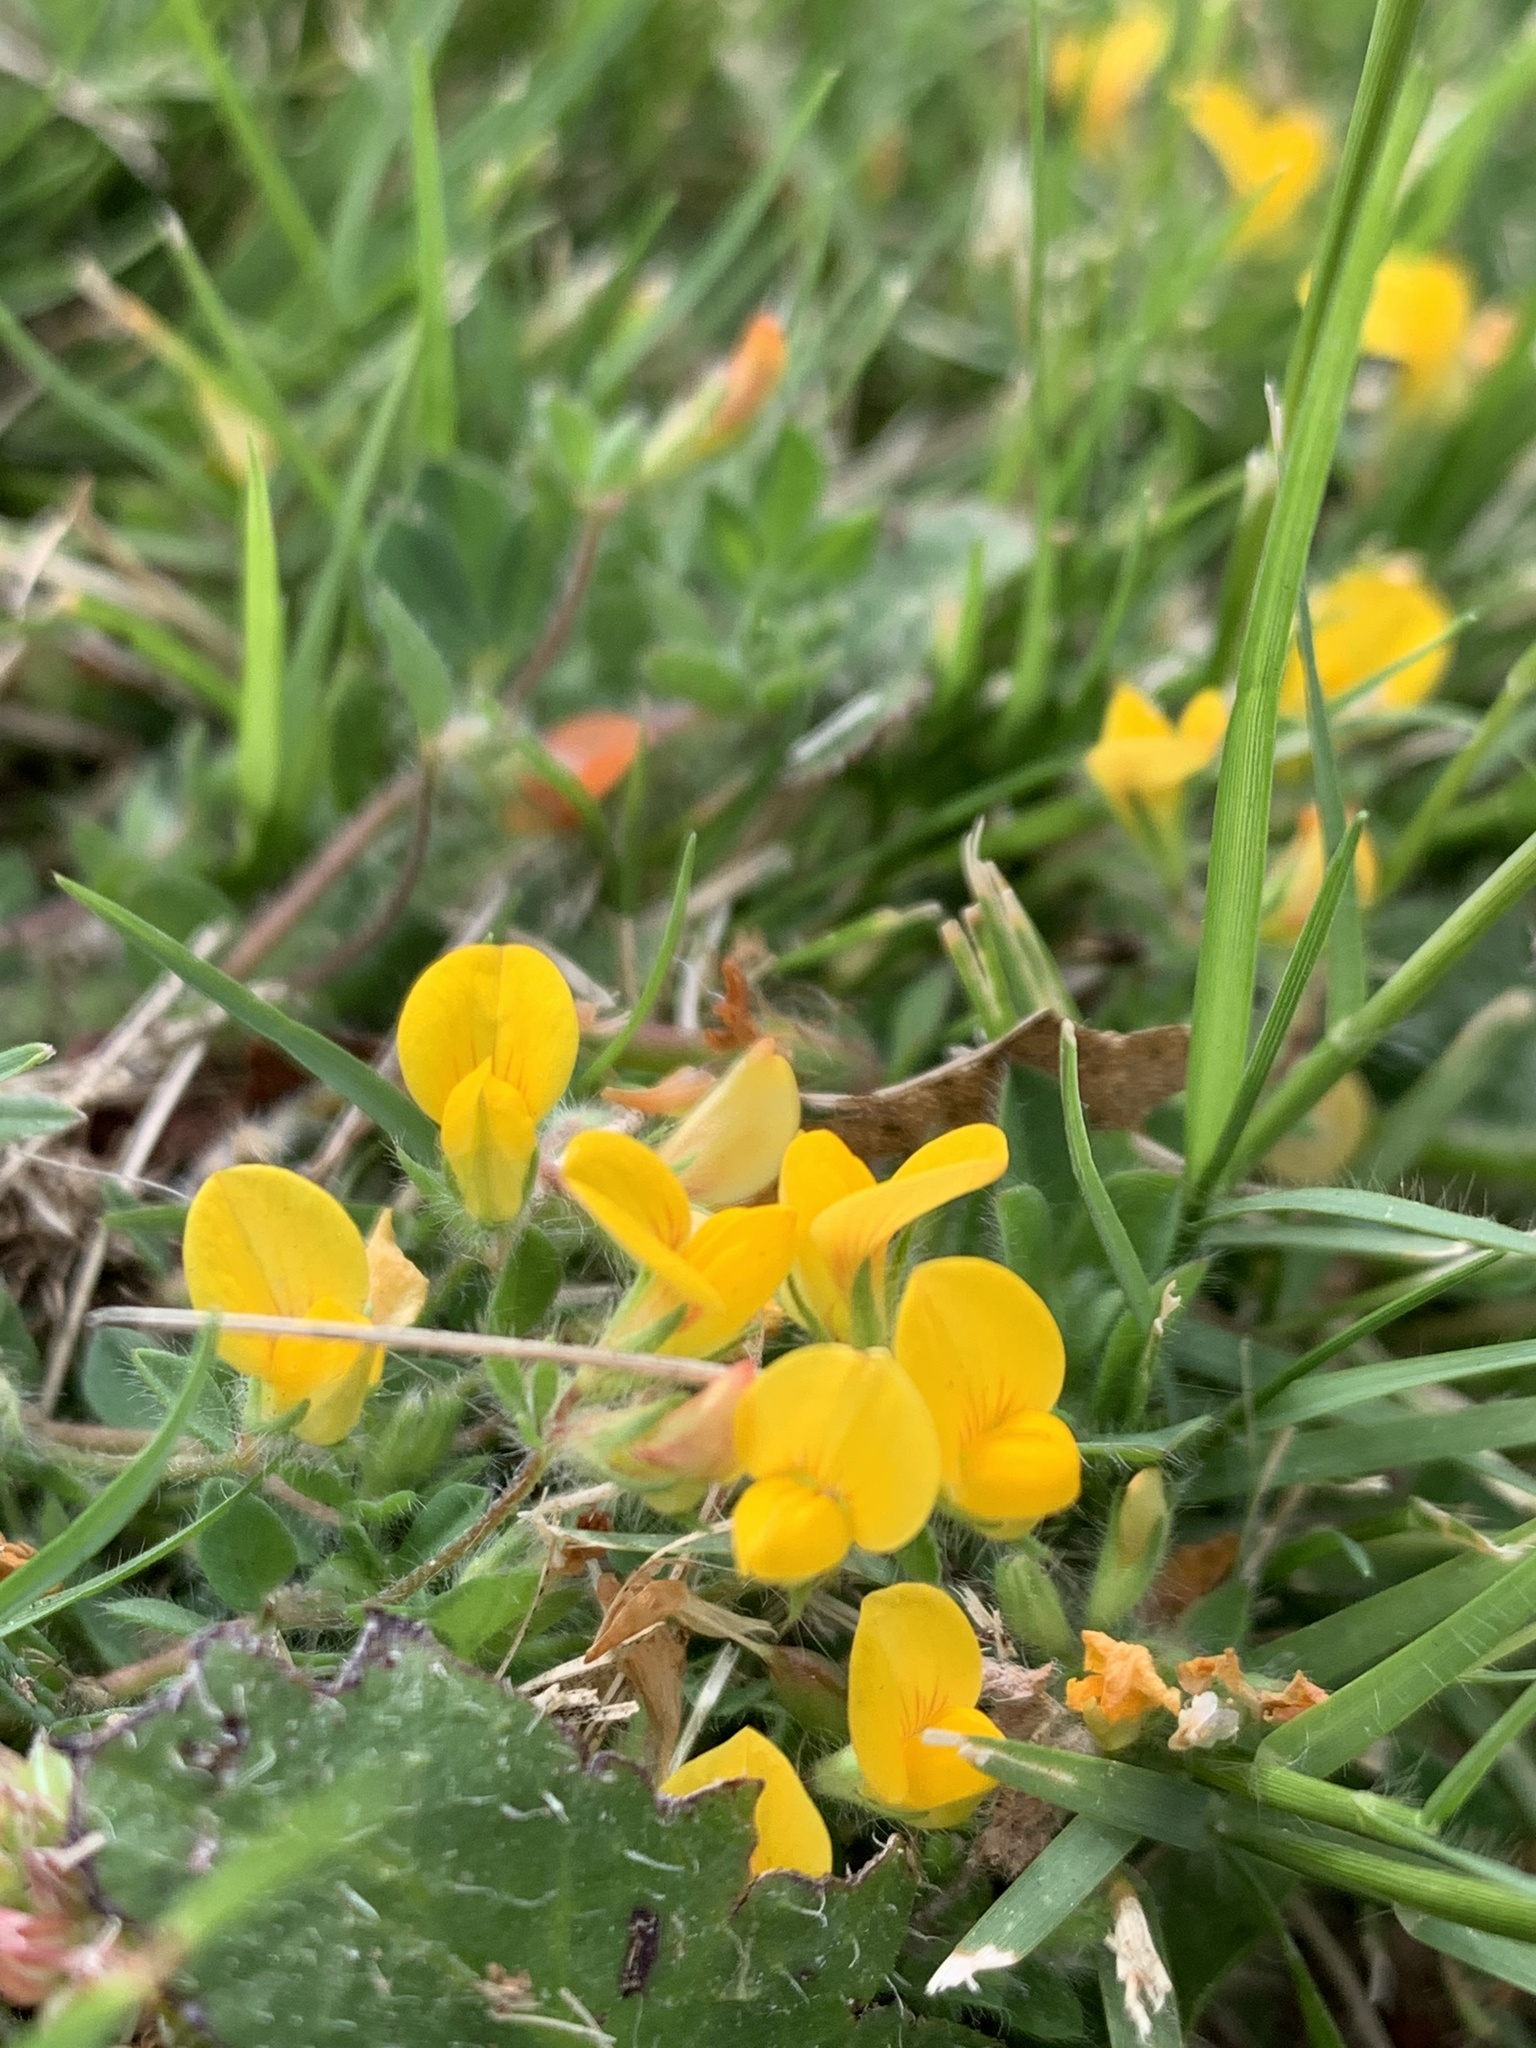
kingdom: Plantae
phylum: Tracheophyta
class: Magnoliopsida
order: Fabales
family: Fabaceae
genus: Lotus
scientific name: Lotus subbiflorus
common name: Hairy bird's-foot trefoil
